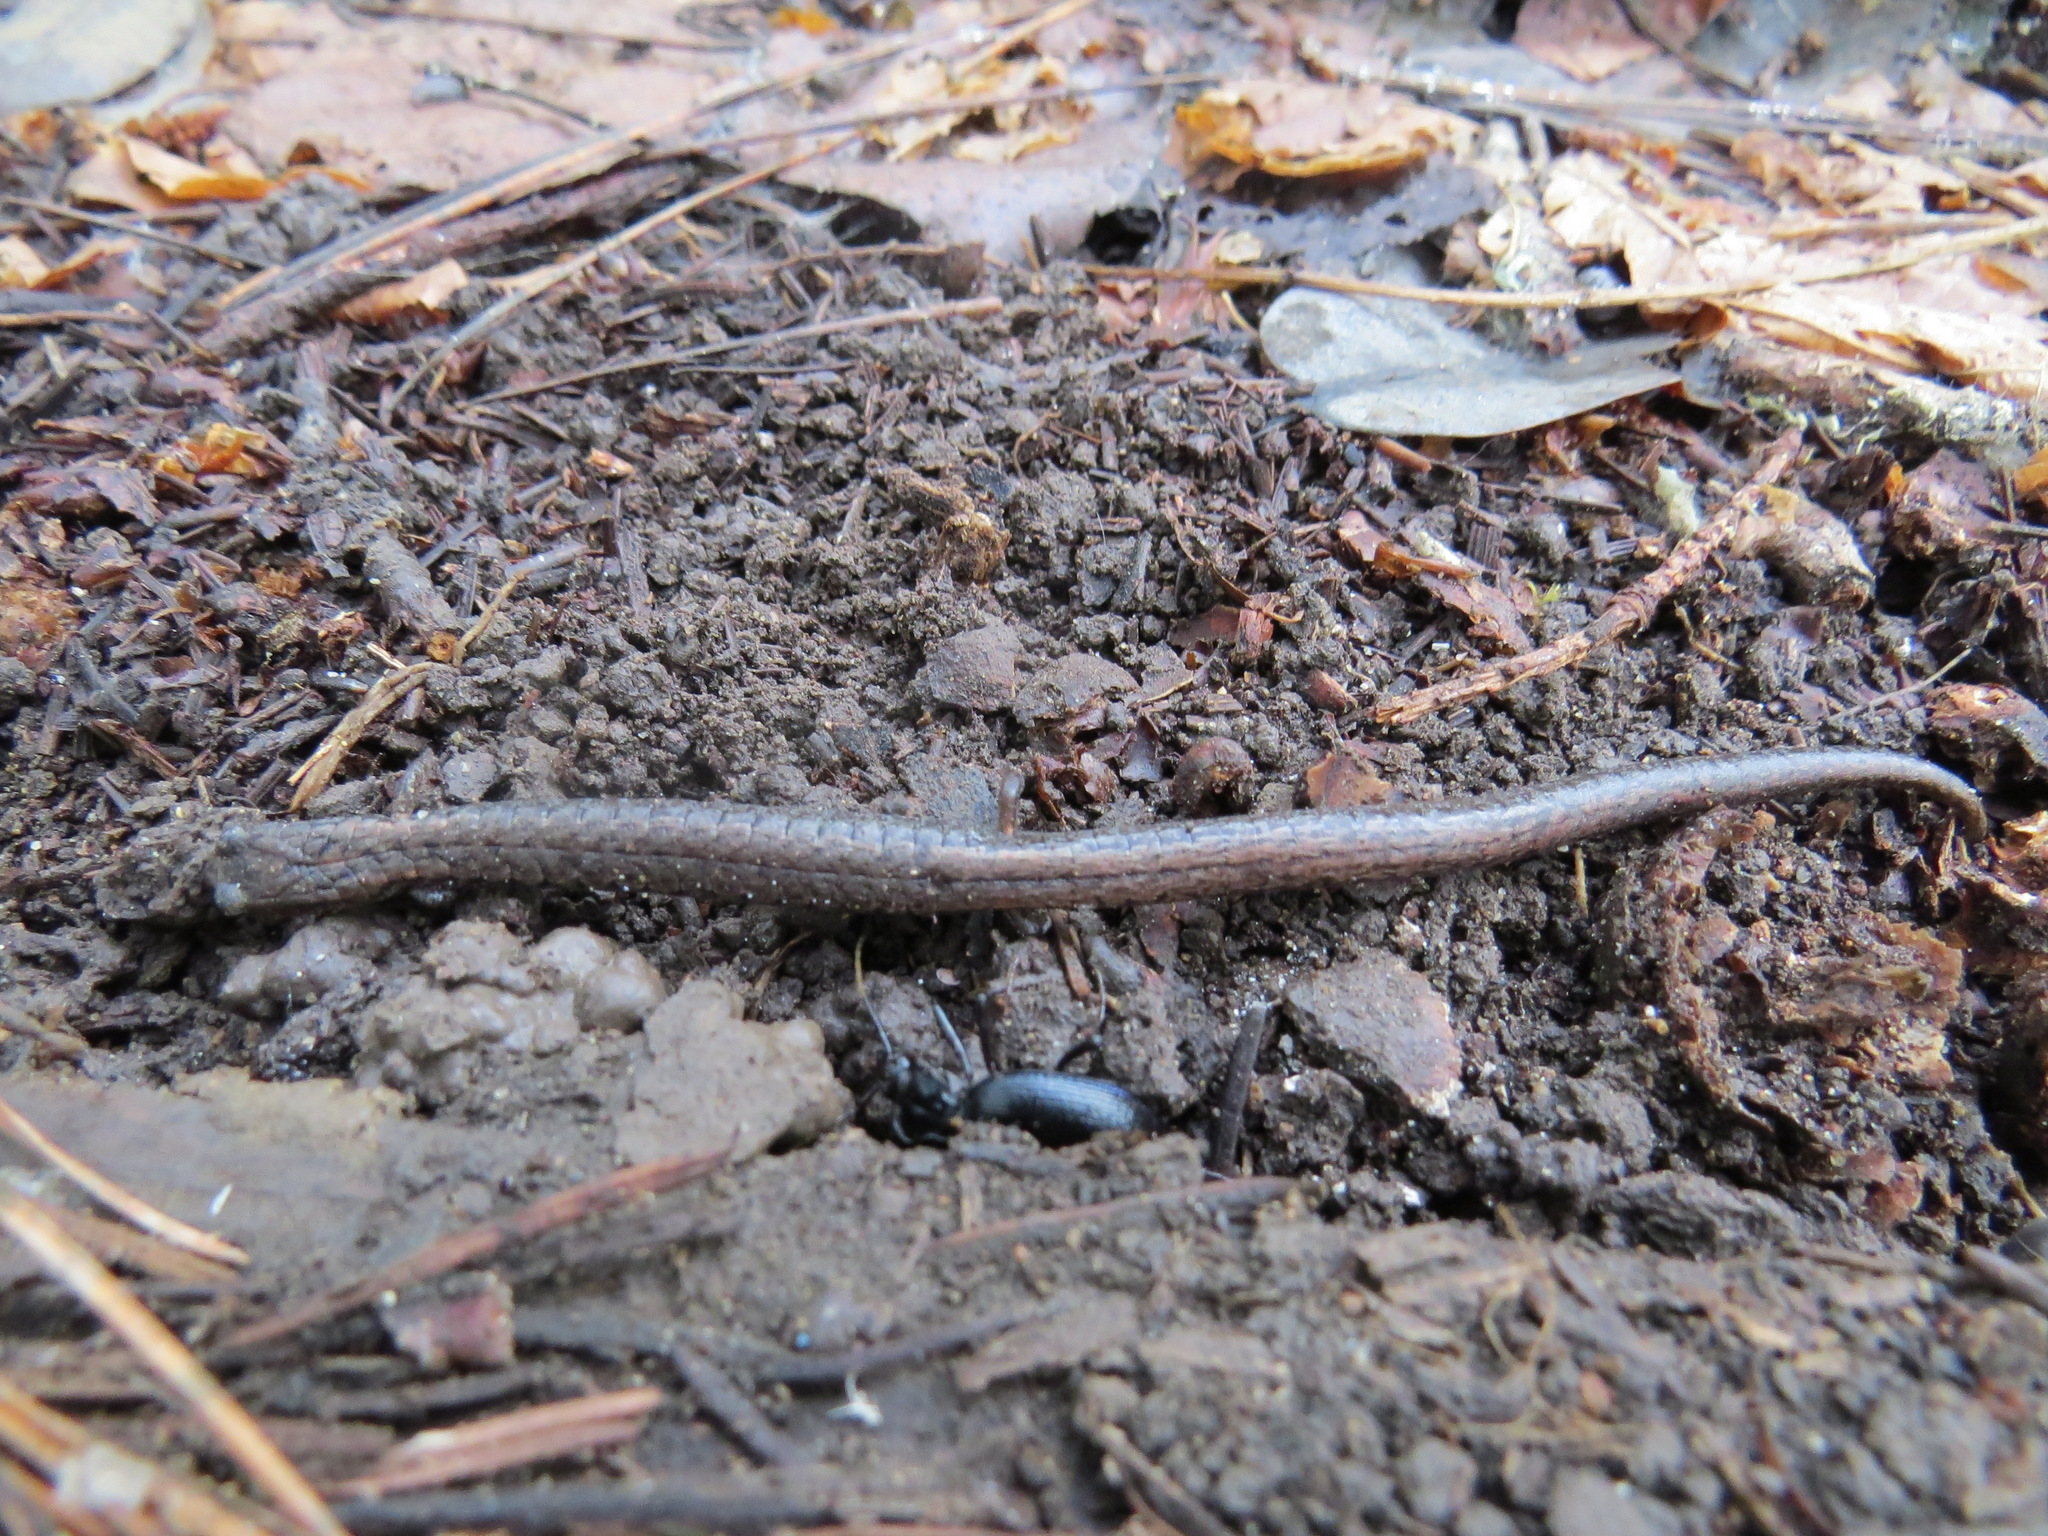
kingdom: Animalia
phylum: Chordata
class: Amphibia
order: Caudata
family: Plethodontidae
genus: Batrachoseps
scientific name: Batrachoseps attenuatus
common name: California slender salamander
